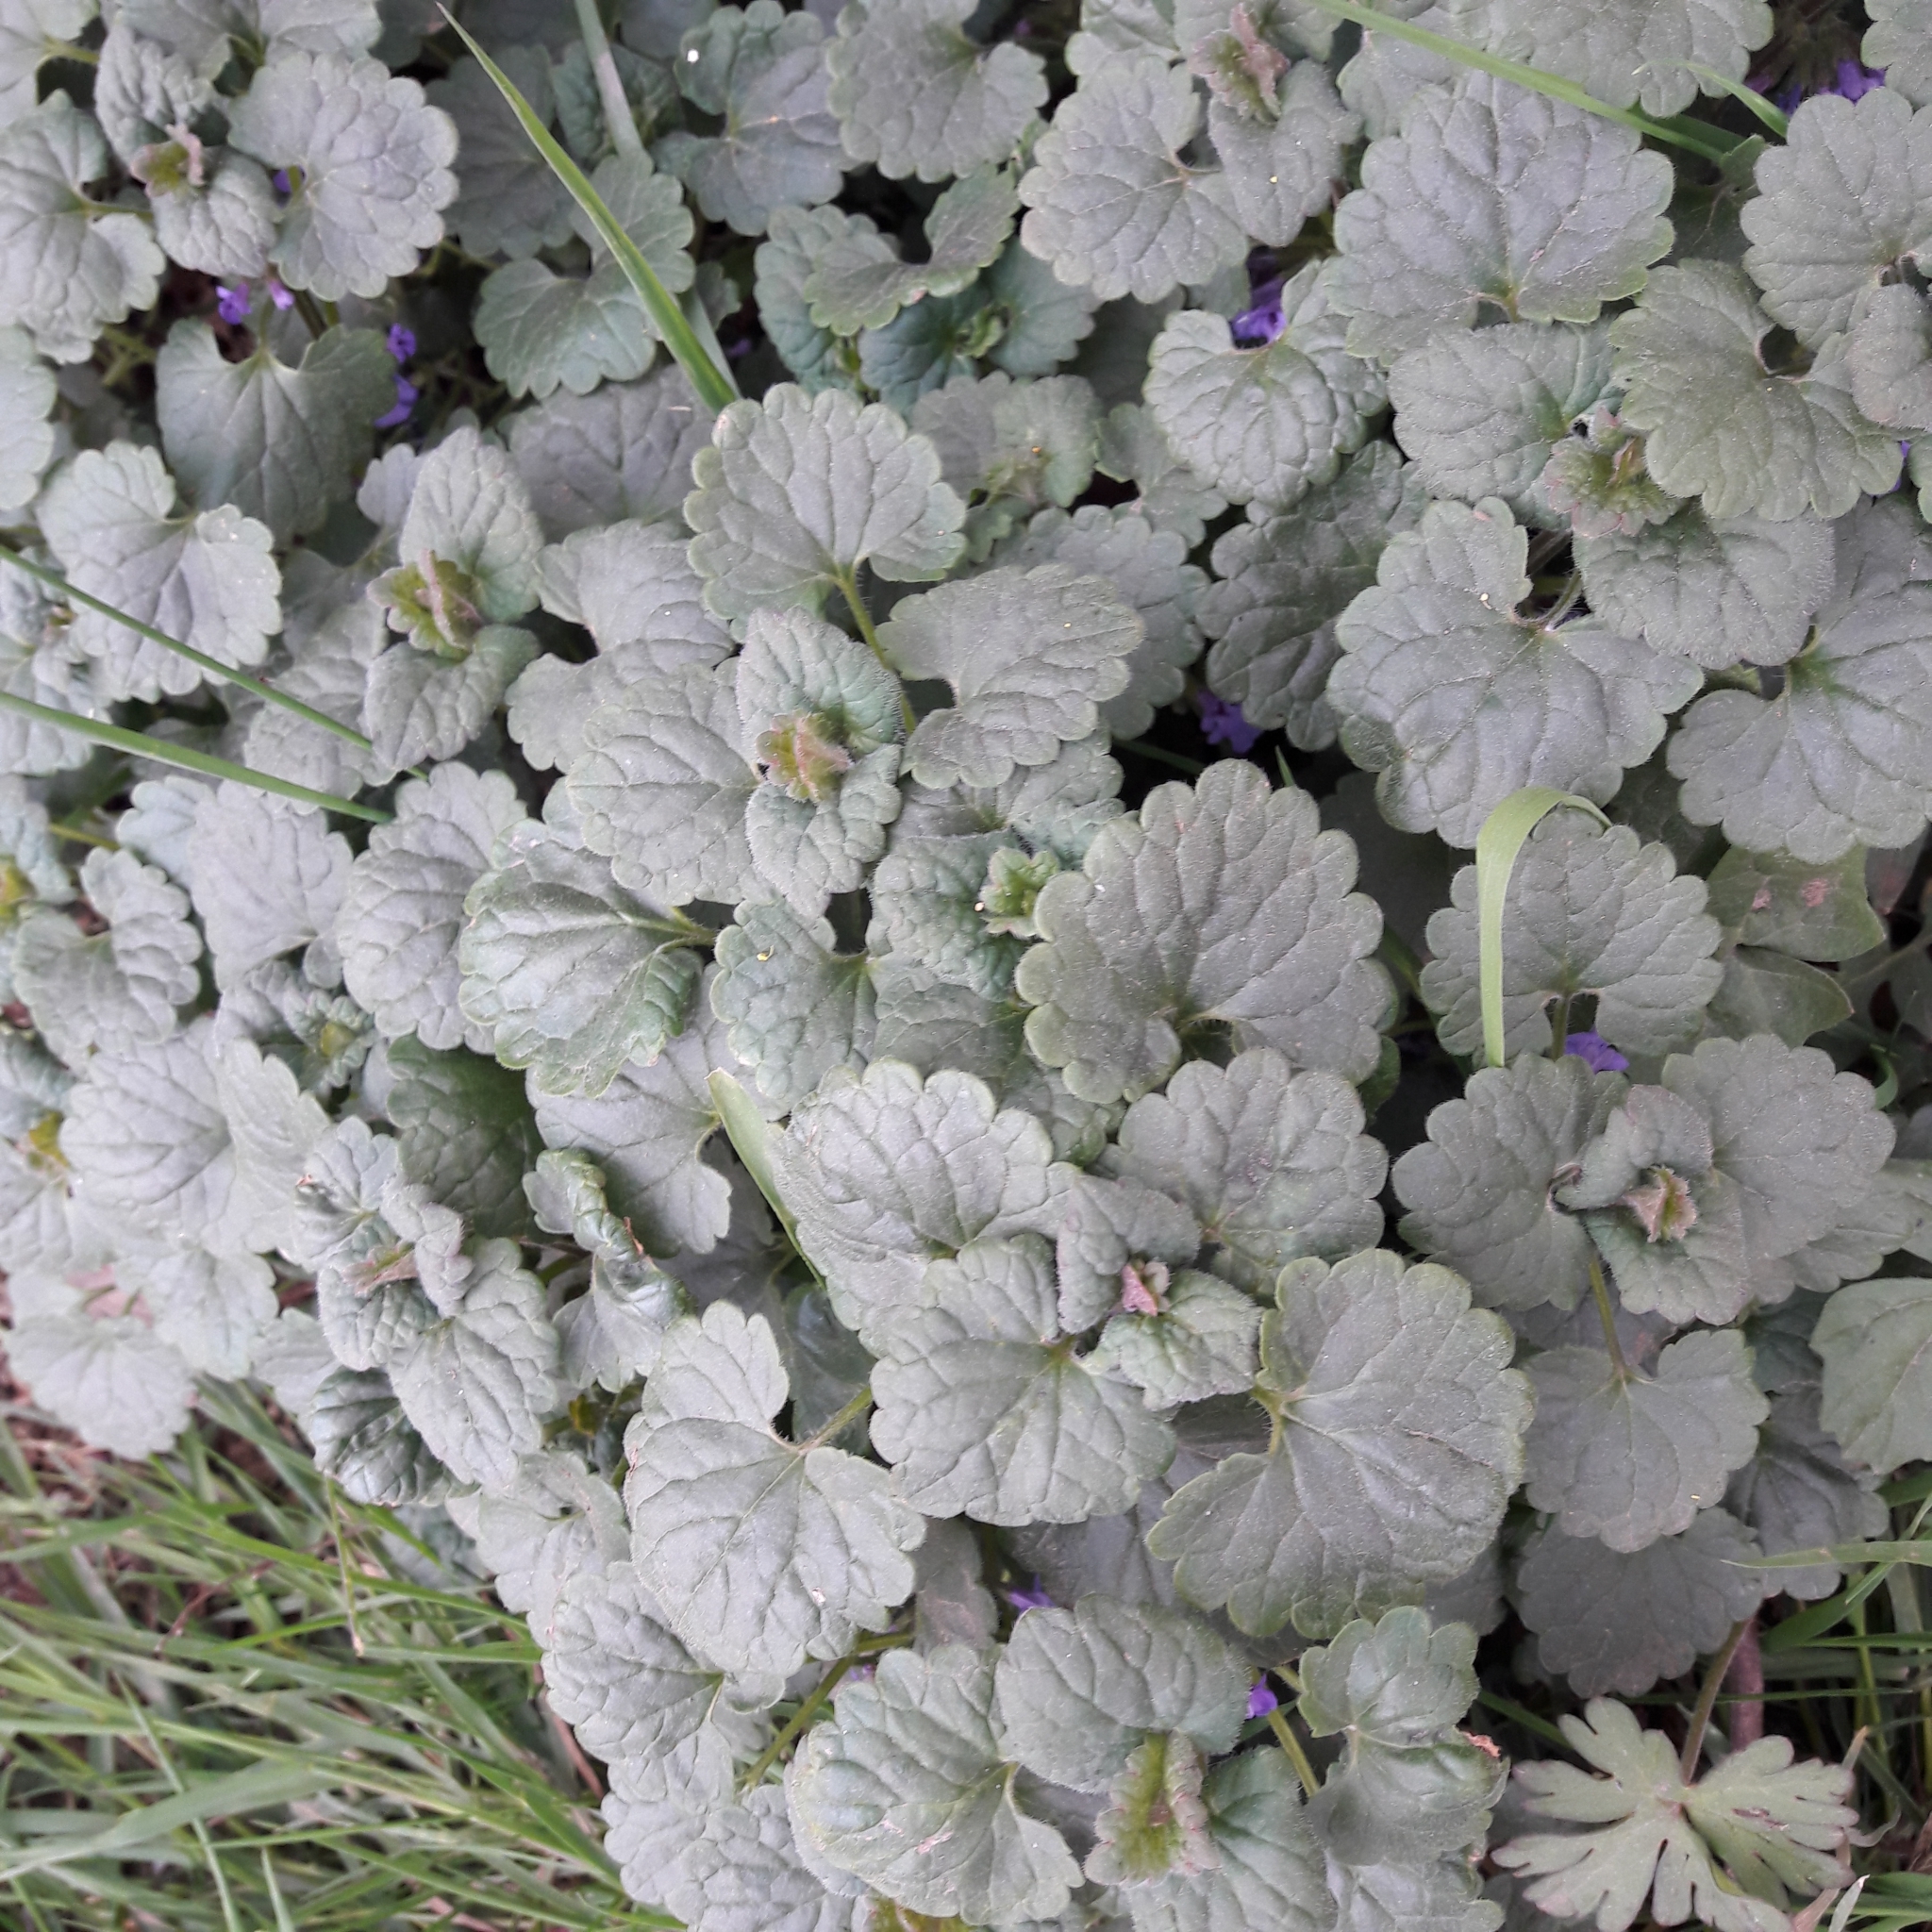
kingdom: Plantae
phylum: Tracheophyta
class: Magnoliopsida
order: Lamiales
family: Lamiaceae
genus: Glechoma
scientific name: Glechoma hederacea
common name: Ground ivy
